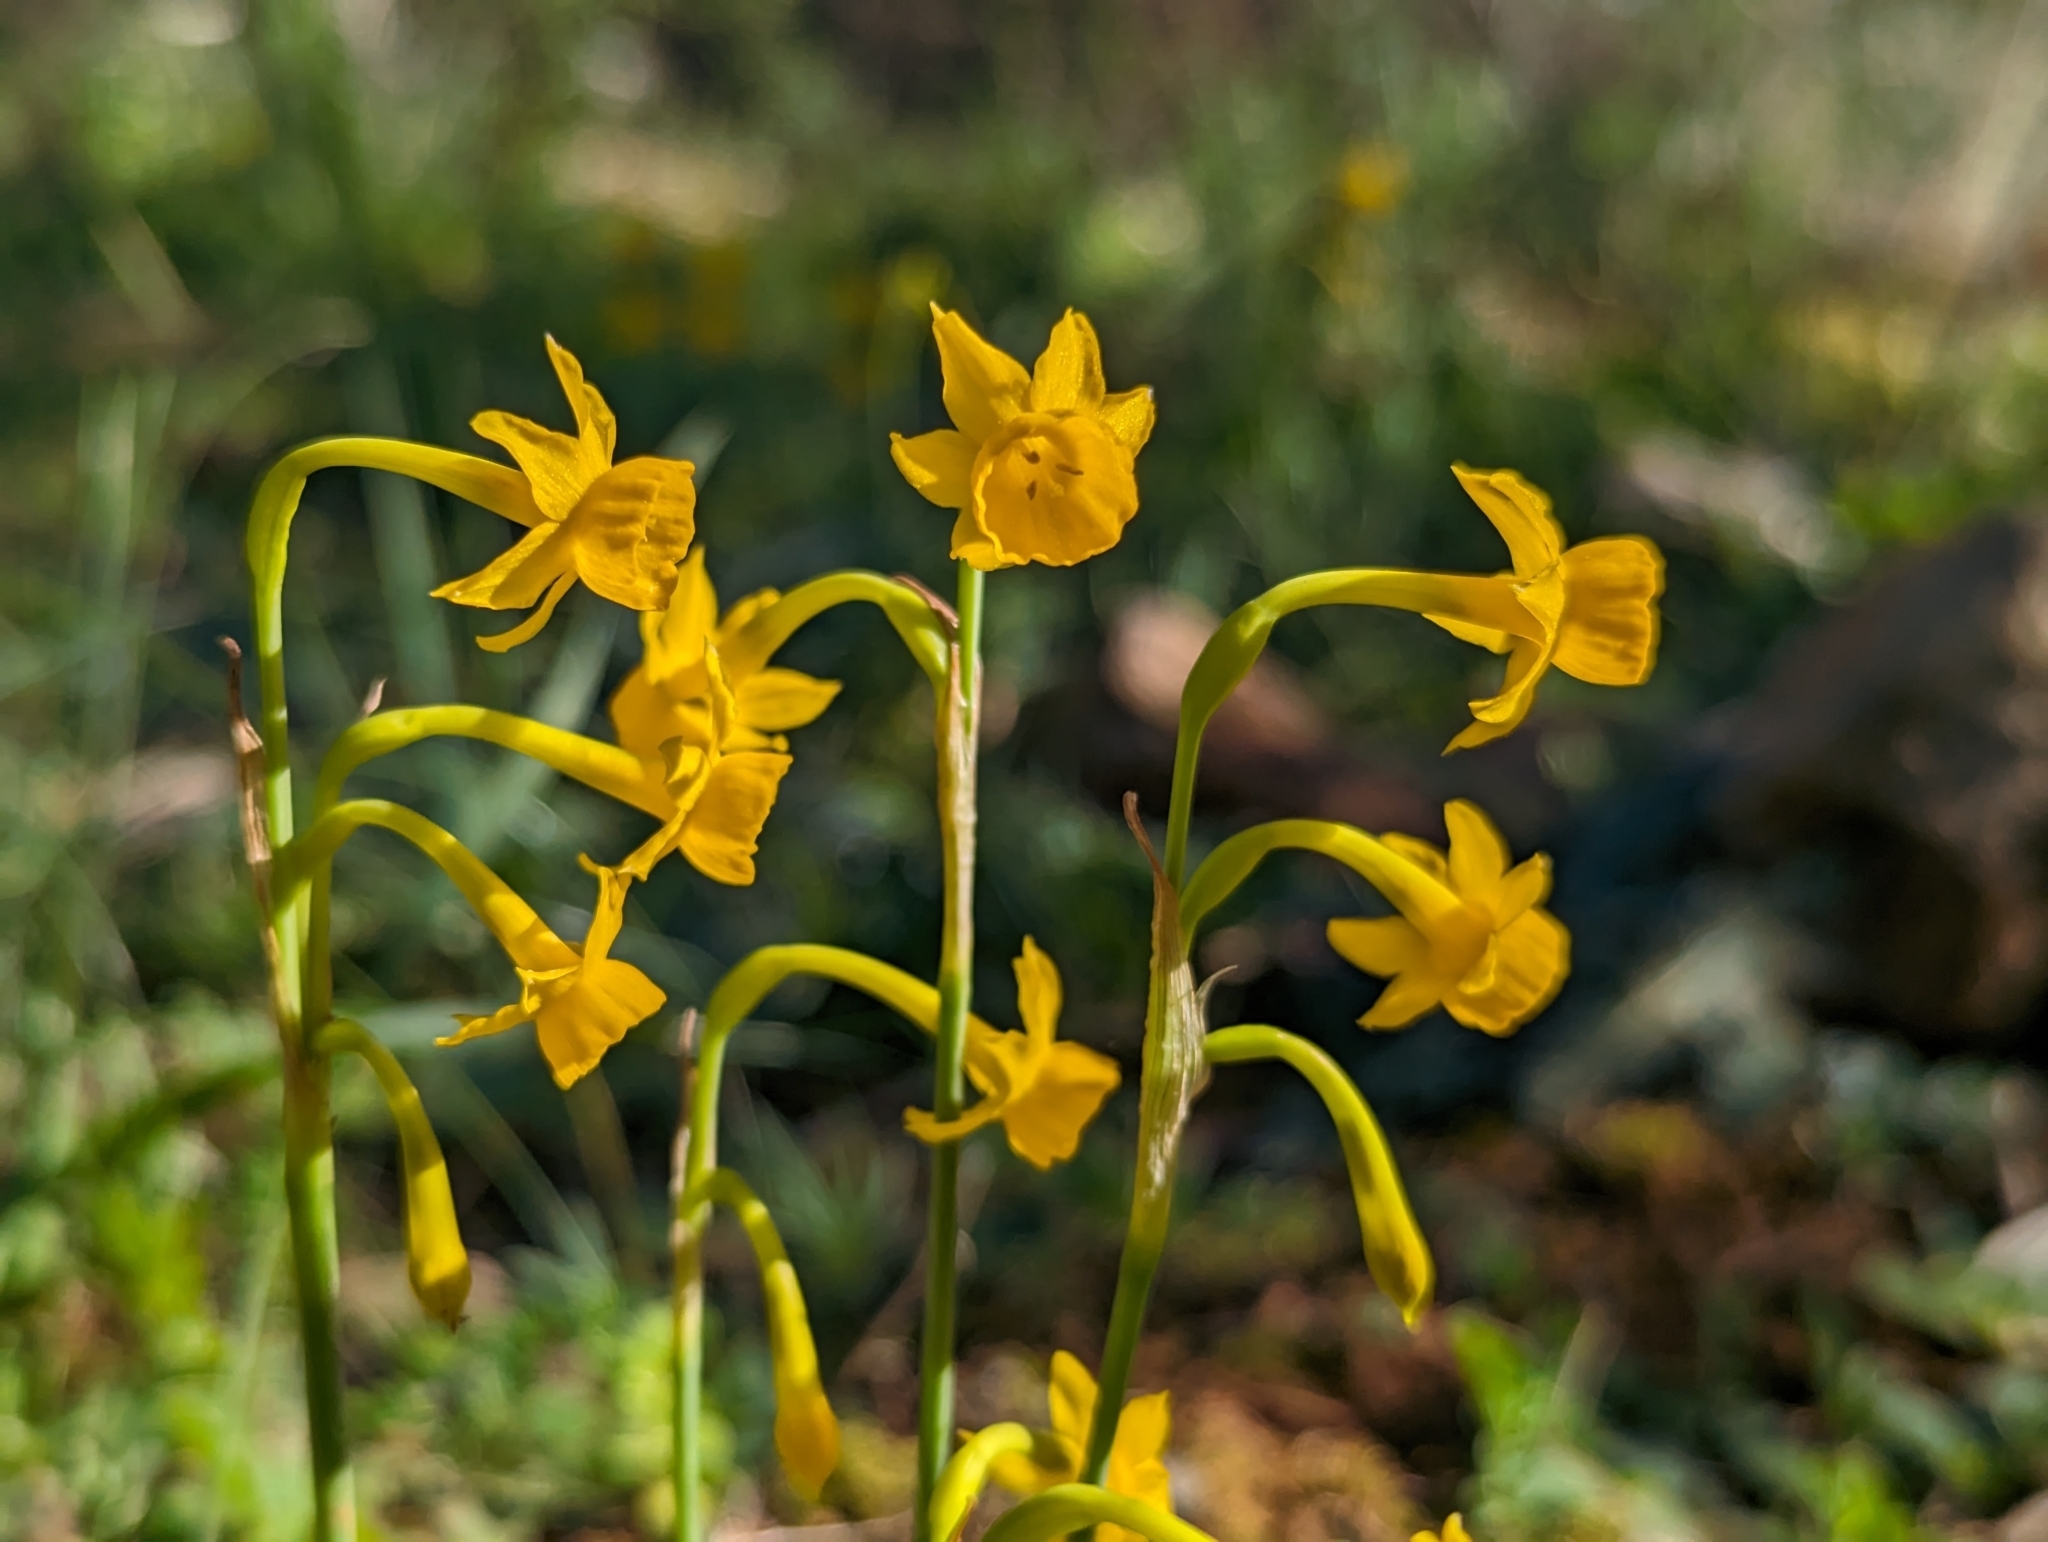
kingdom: Plantae
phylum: Tracheophyta
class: Liliopsida
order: Asparagales
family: Amaryllidaceae
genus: Narcissus
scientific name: Narcissus gaditanus
